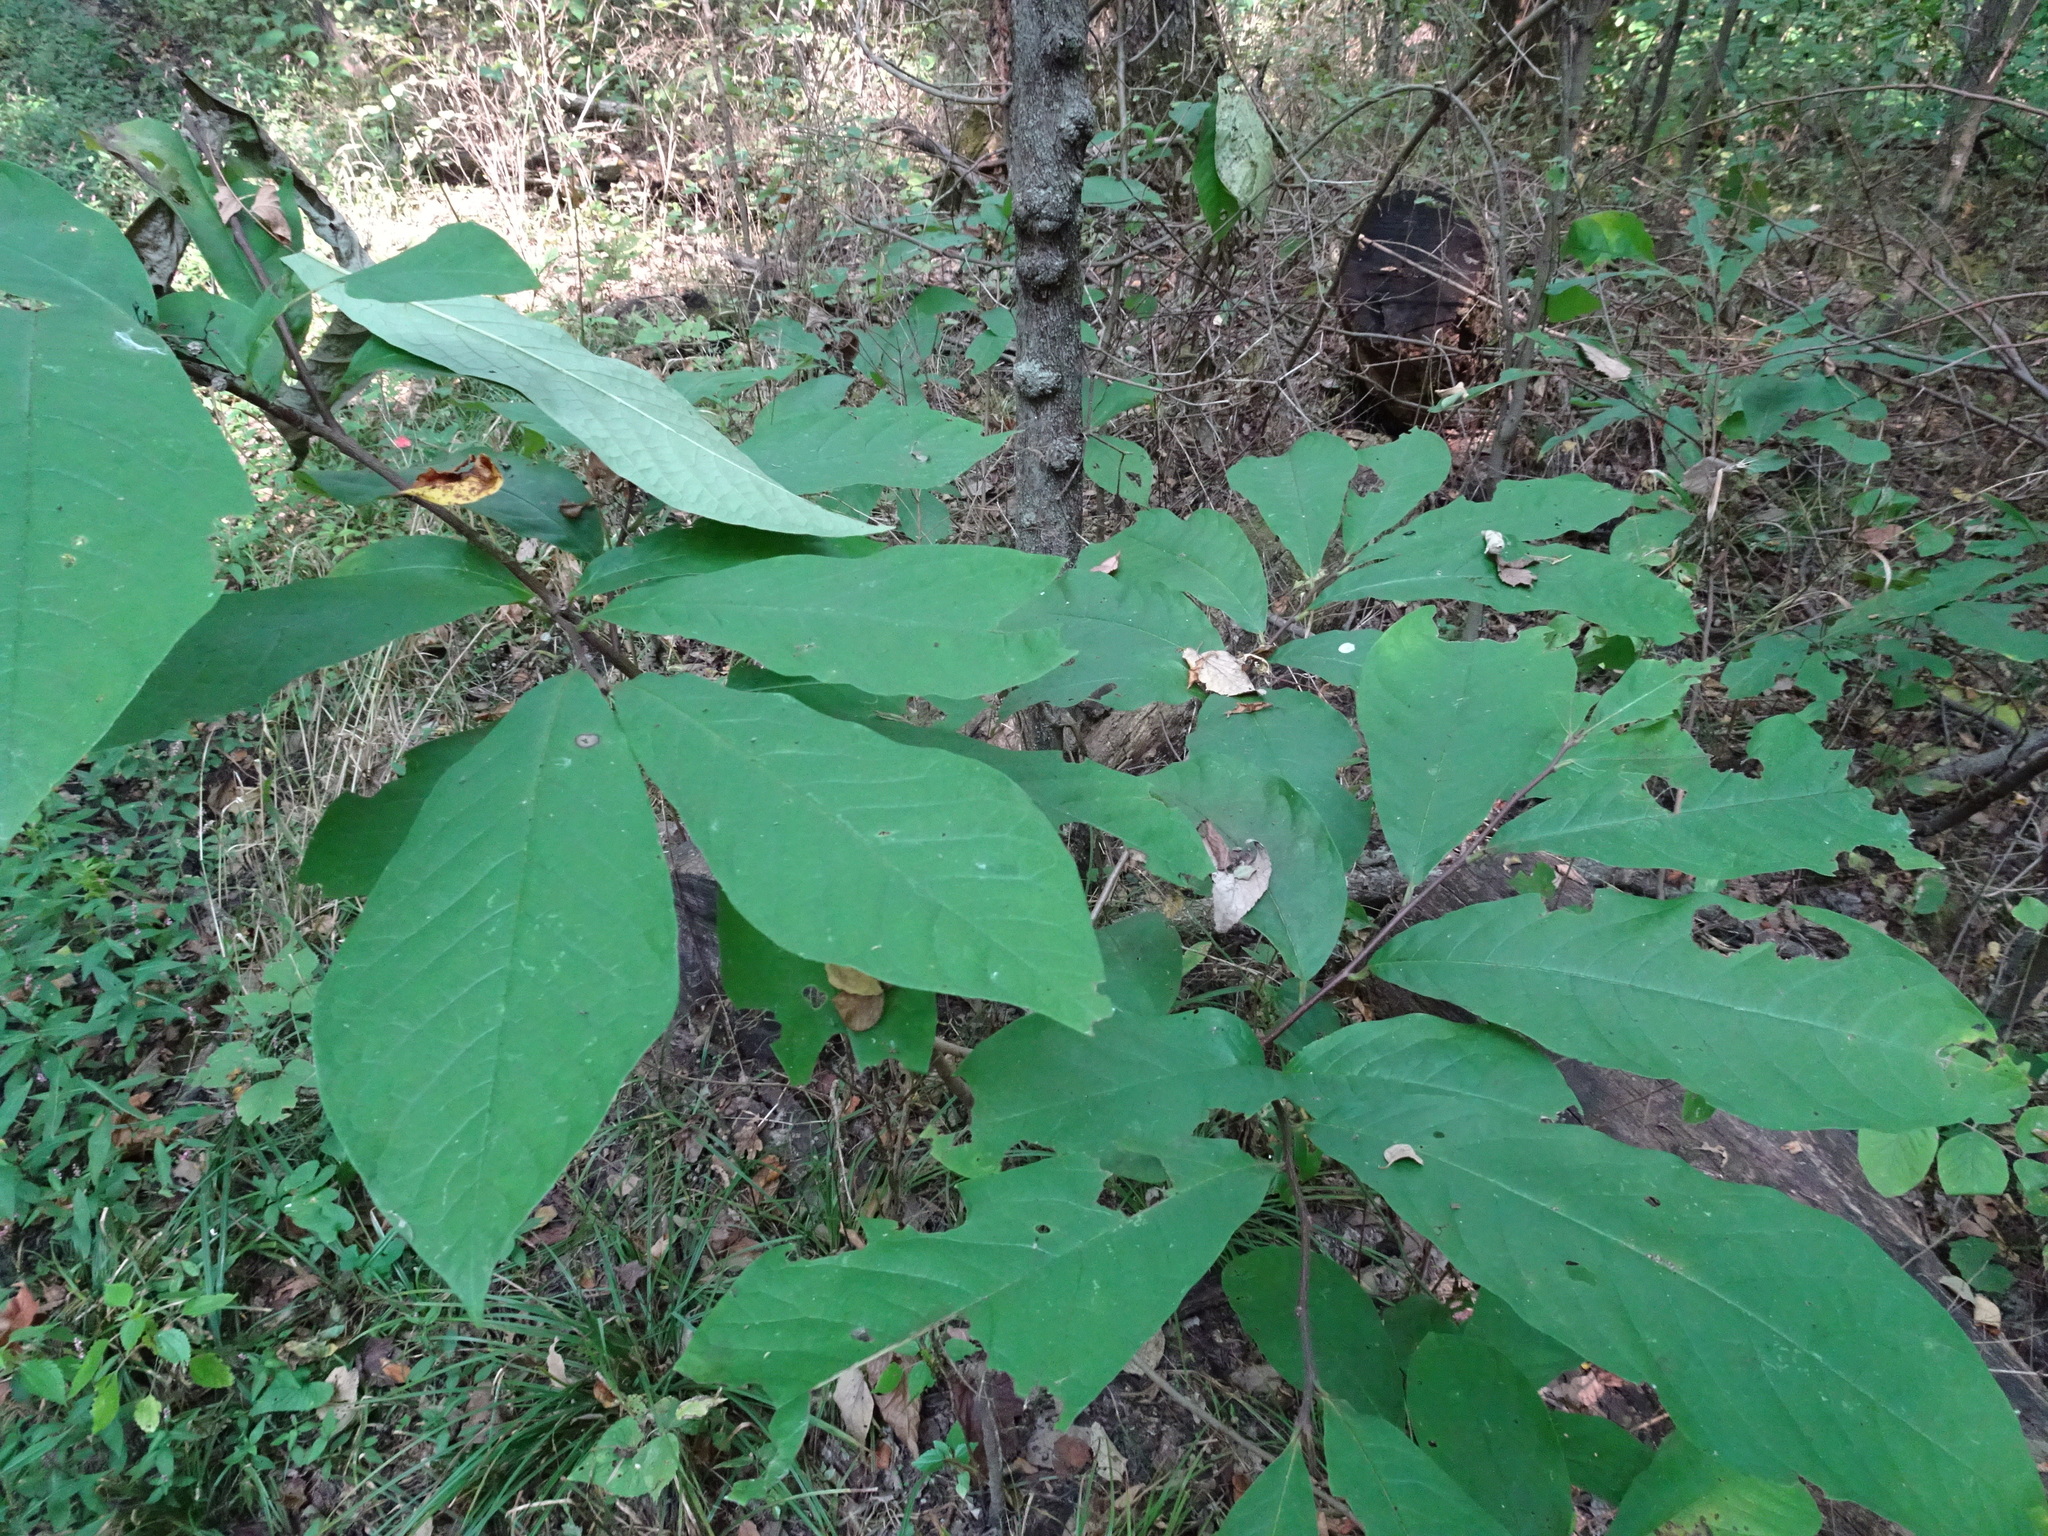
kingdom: Plantae
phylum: Tracheophyta
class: Magnoliopsida
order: Magnoliales
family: Annonaceae
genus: Asimina
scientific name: Asimina triloba
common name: Dog-banana
